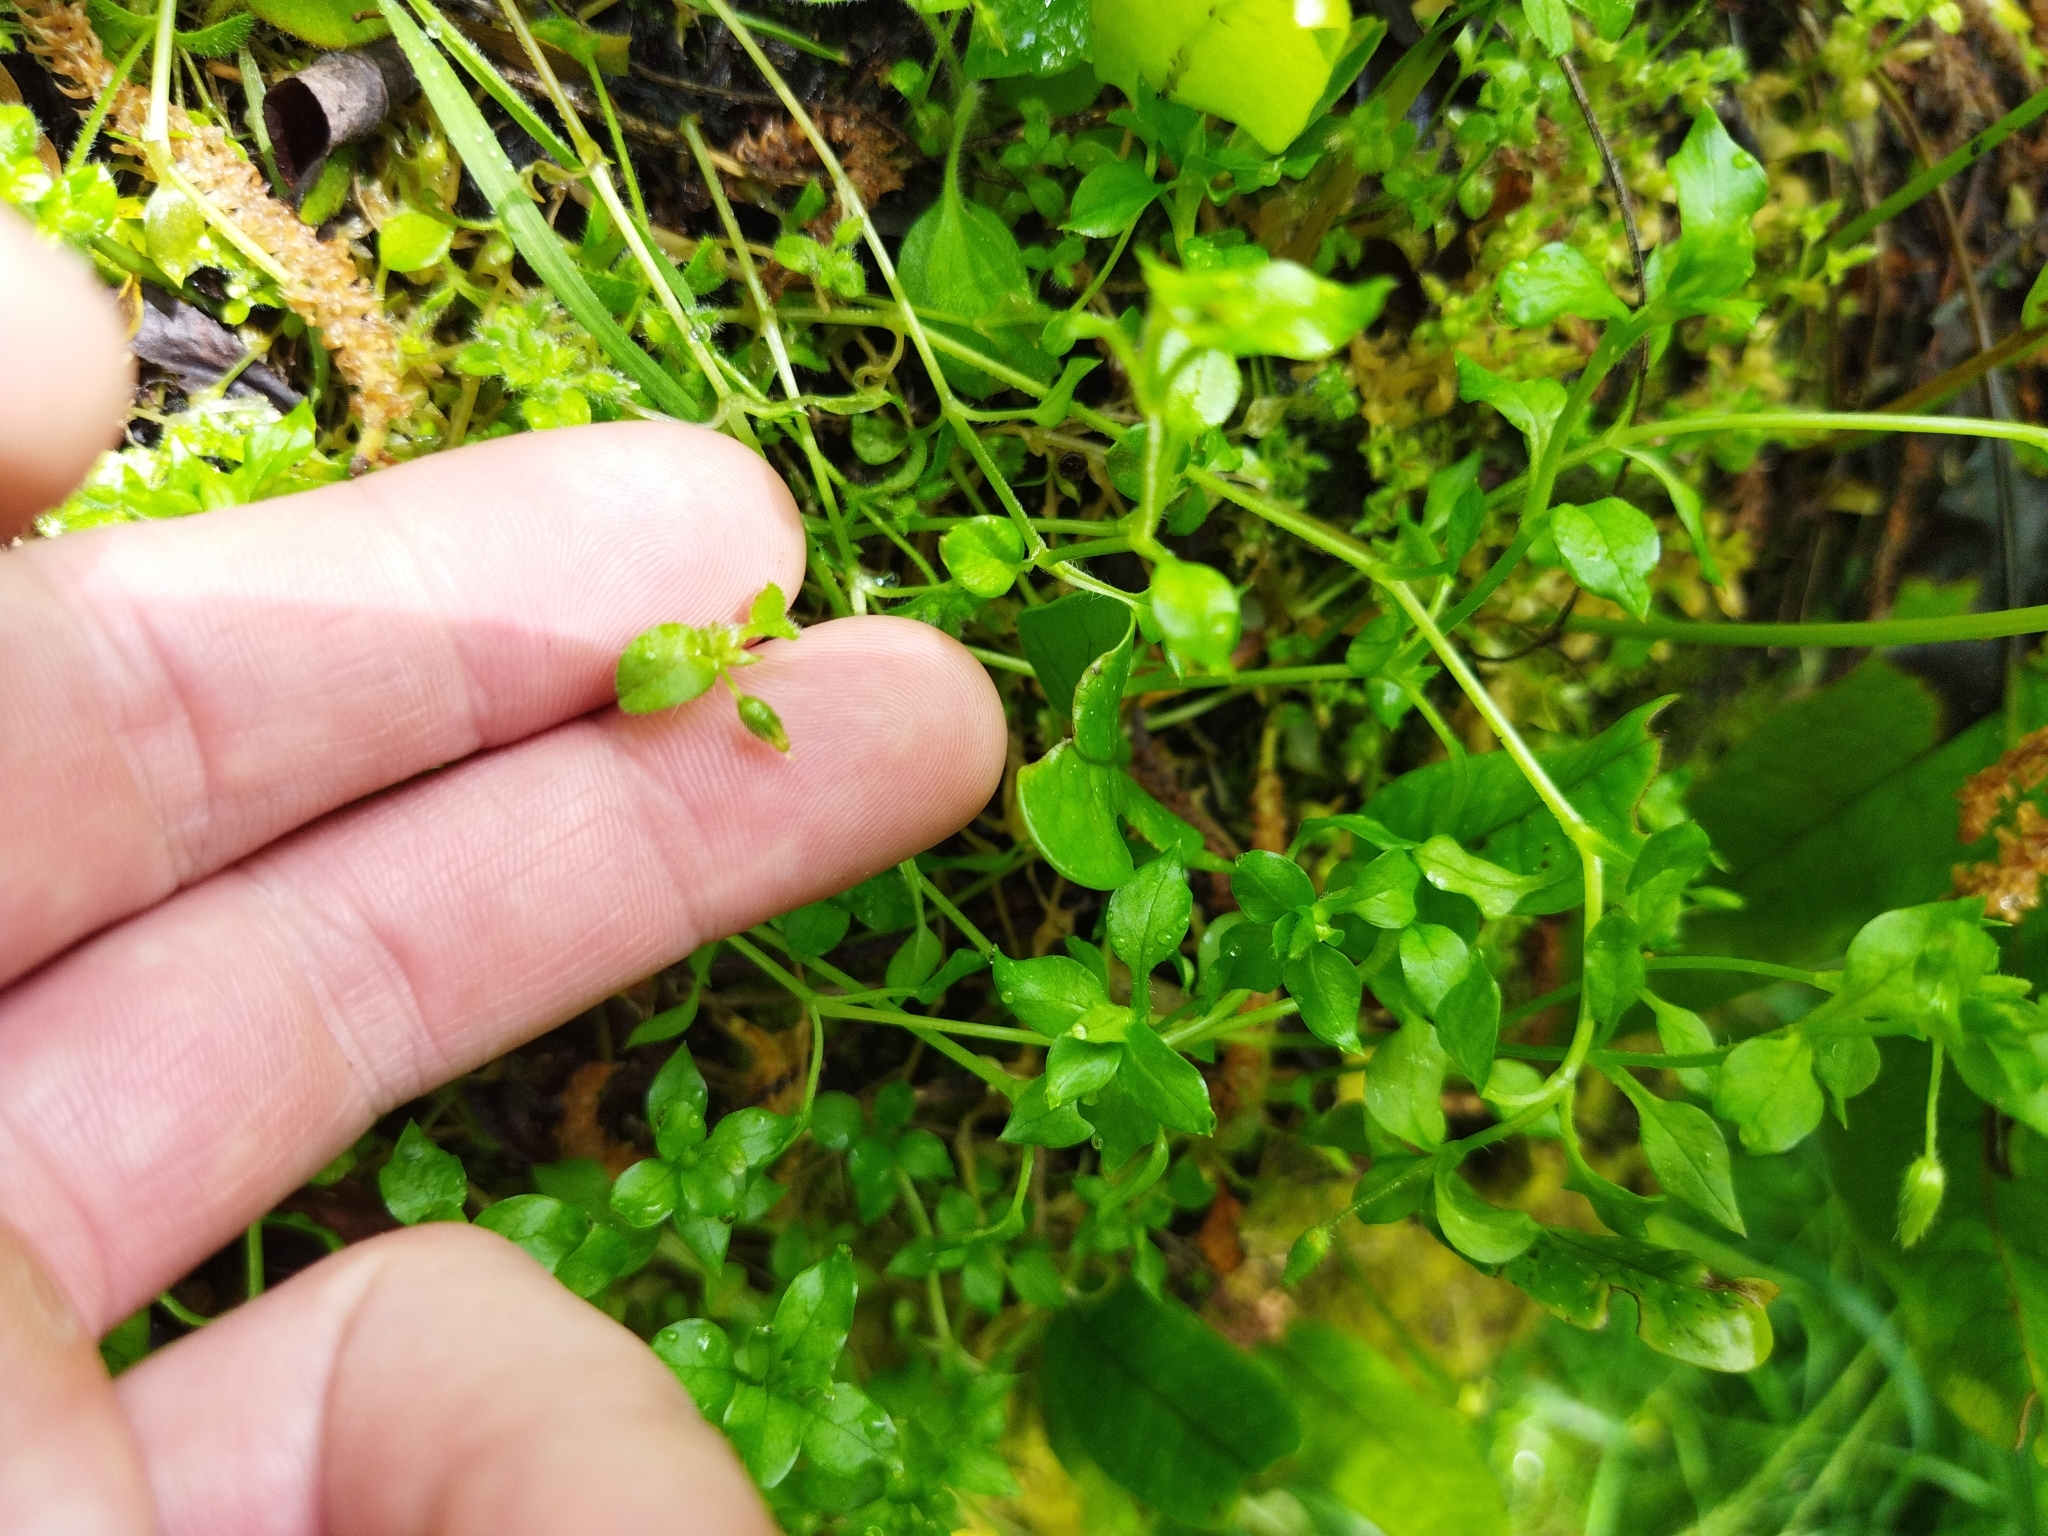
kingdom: Plantae
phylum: Tracheophyta
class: Magnoliopsida
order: Caryophyllales
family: Caryophyllaceae
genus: Stellaria
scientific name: Stellaria media
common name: Common chickweed
